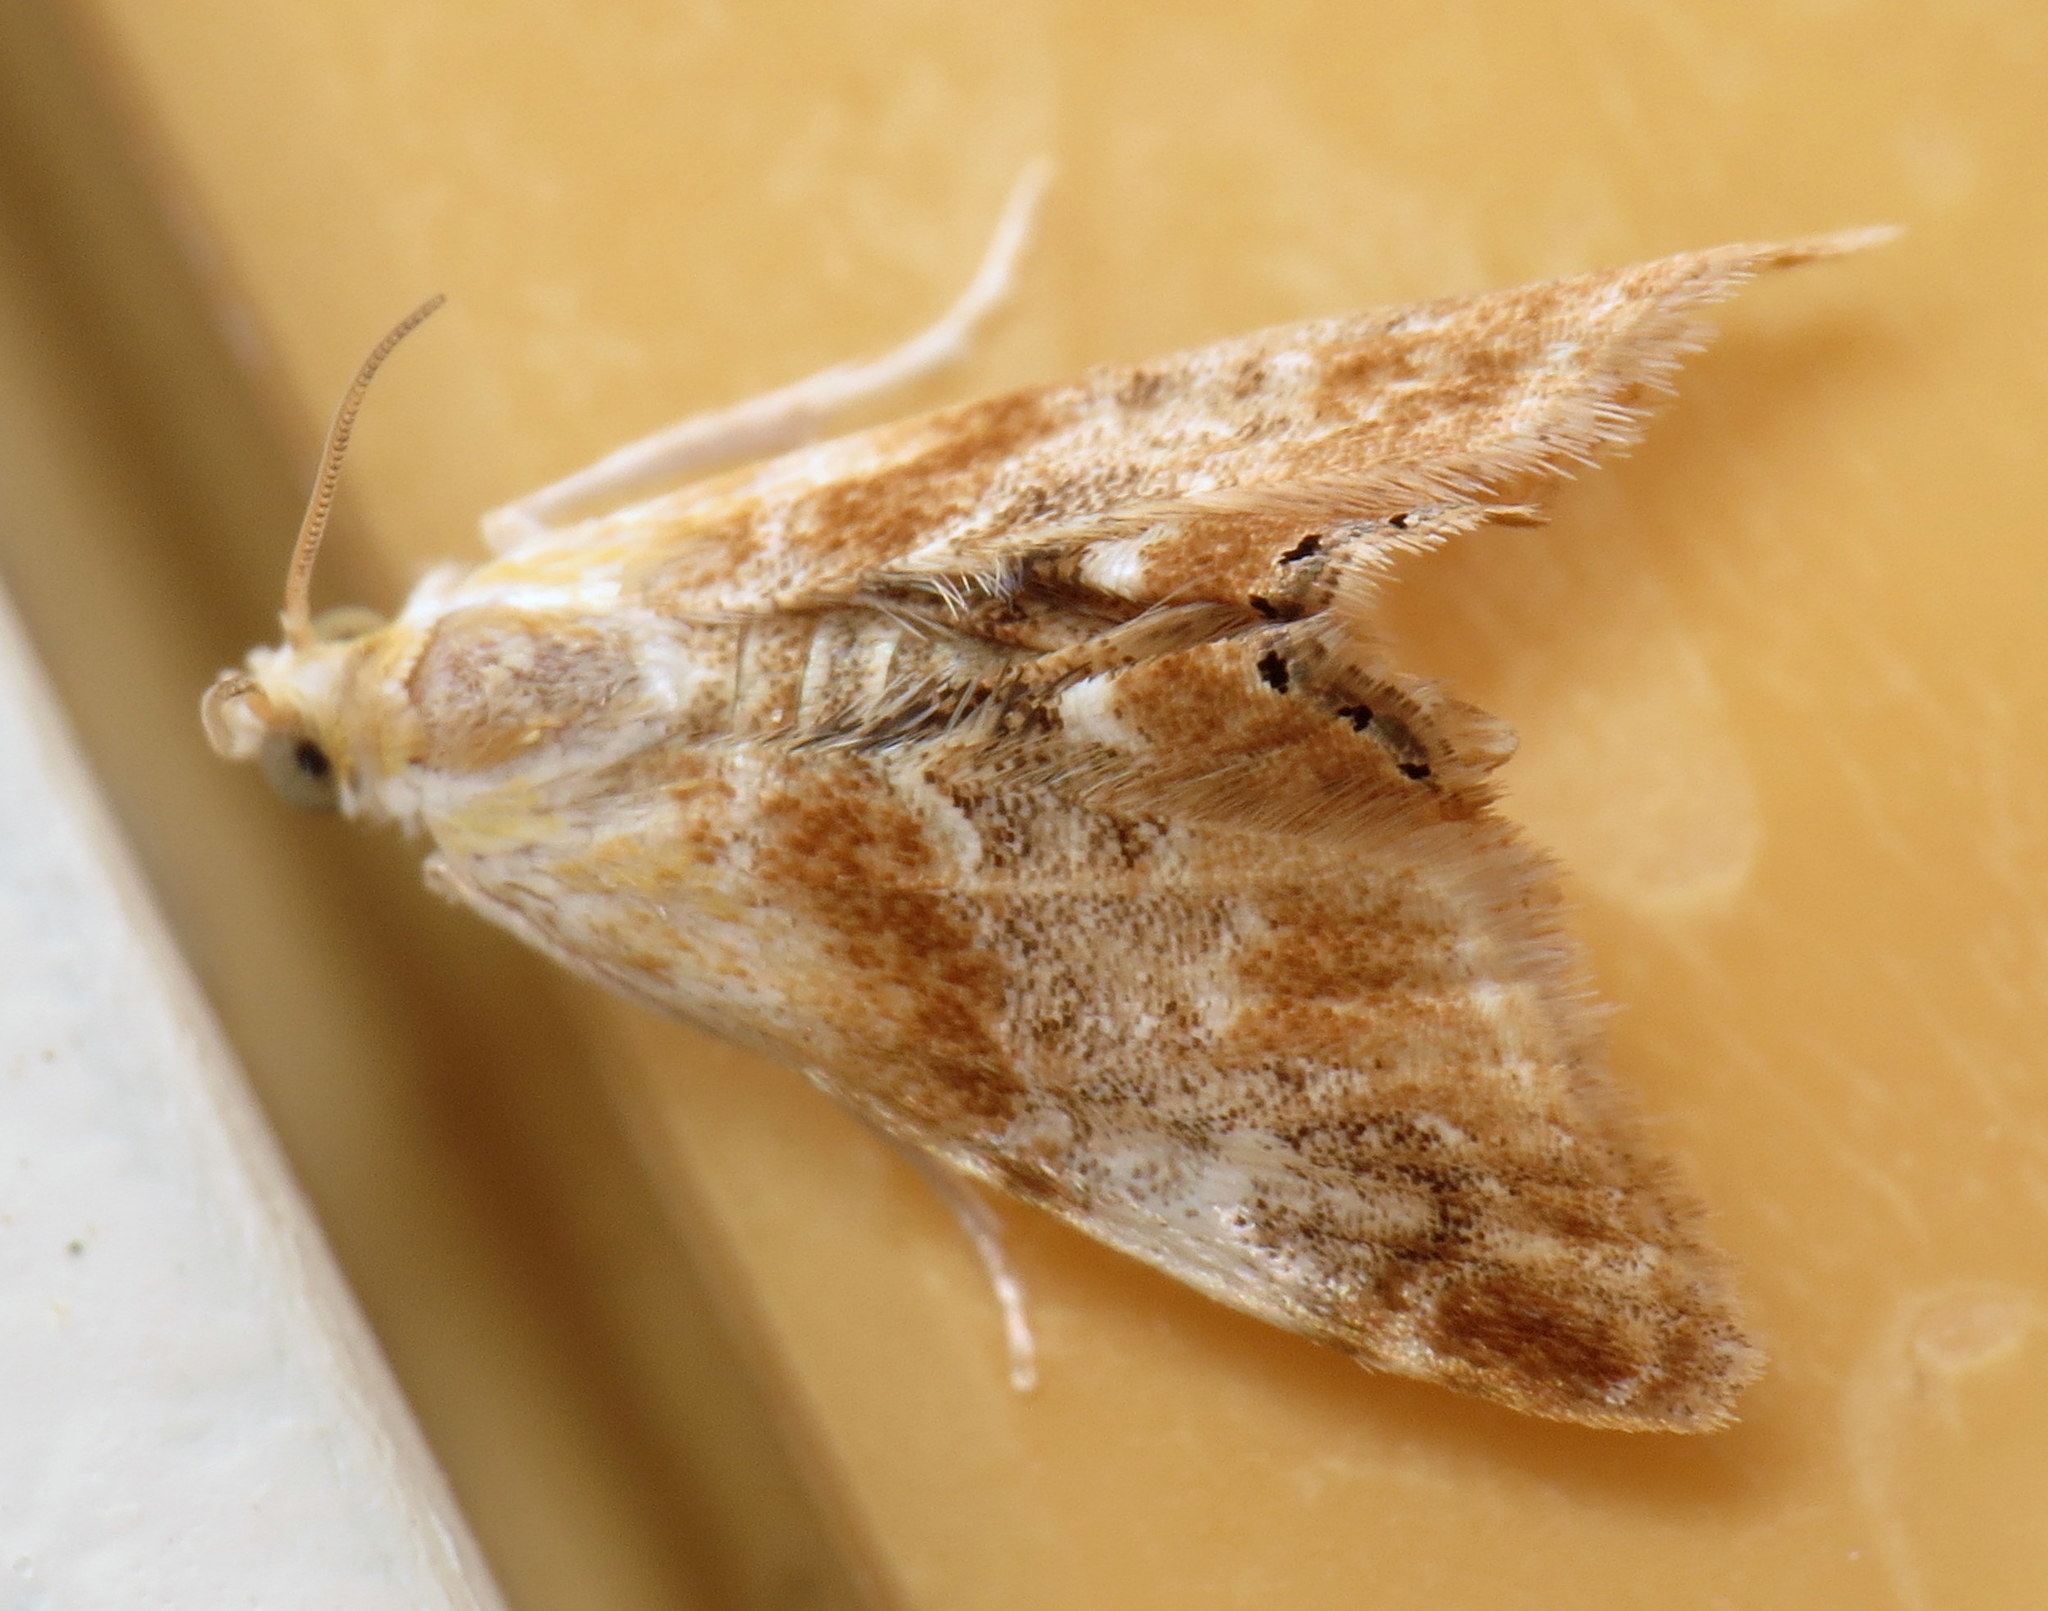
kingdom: Animalia
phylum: Arthropoda
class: Insecta
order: Lepidoptera
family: Crambidae
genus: Dicymolomia
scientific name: Dicymolomia julianalis
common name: Julia's dicymolomia moth
